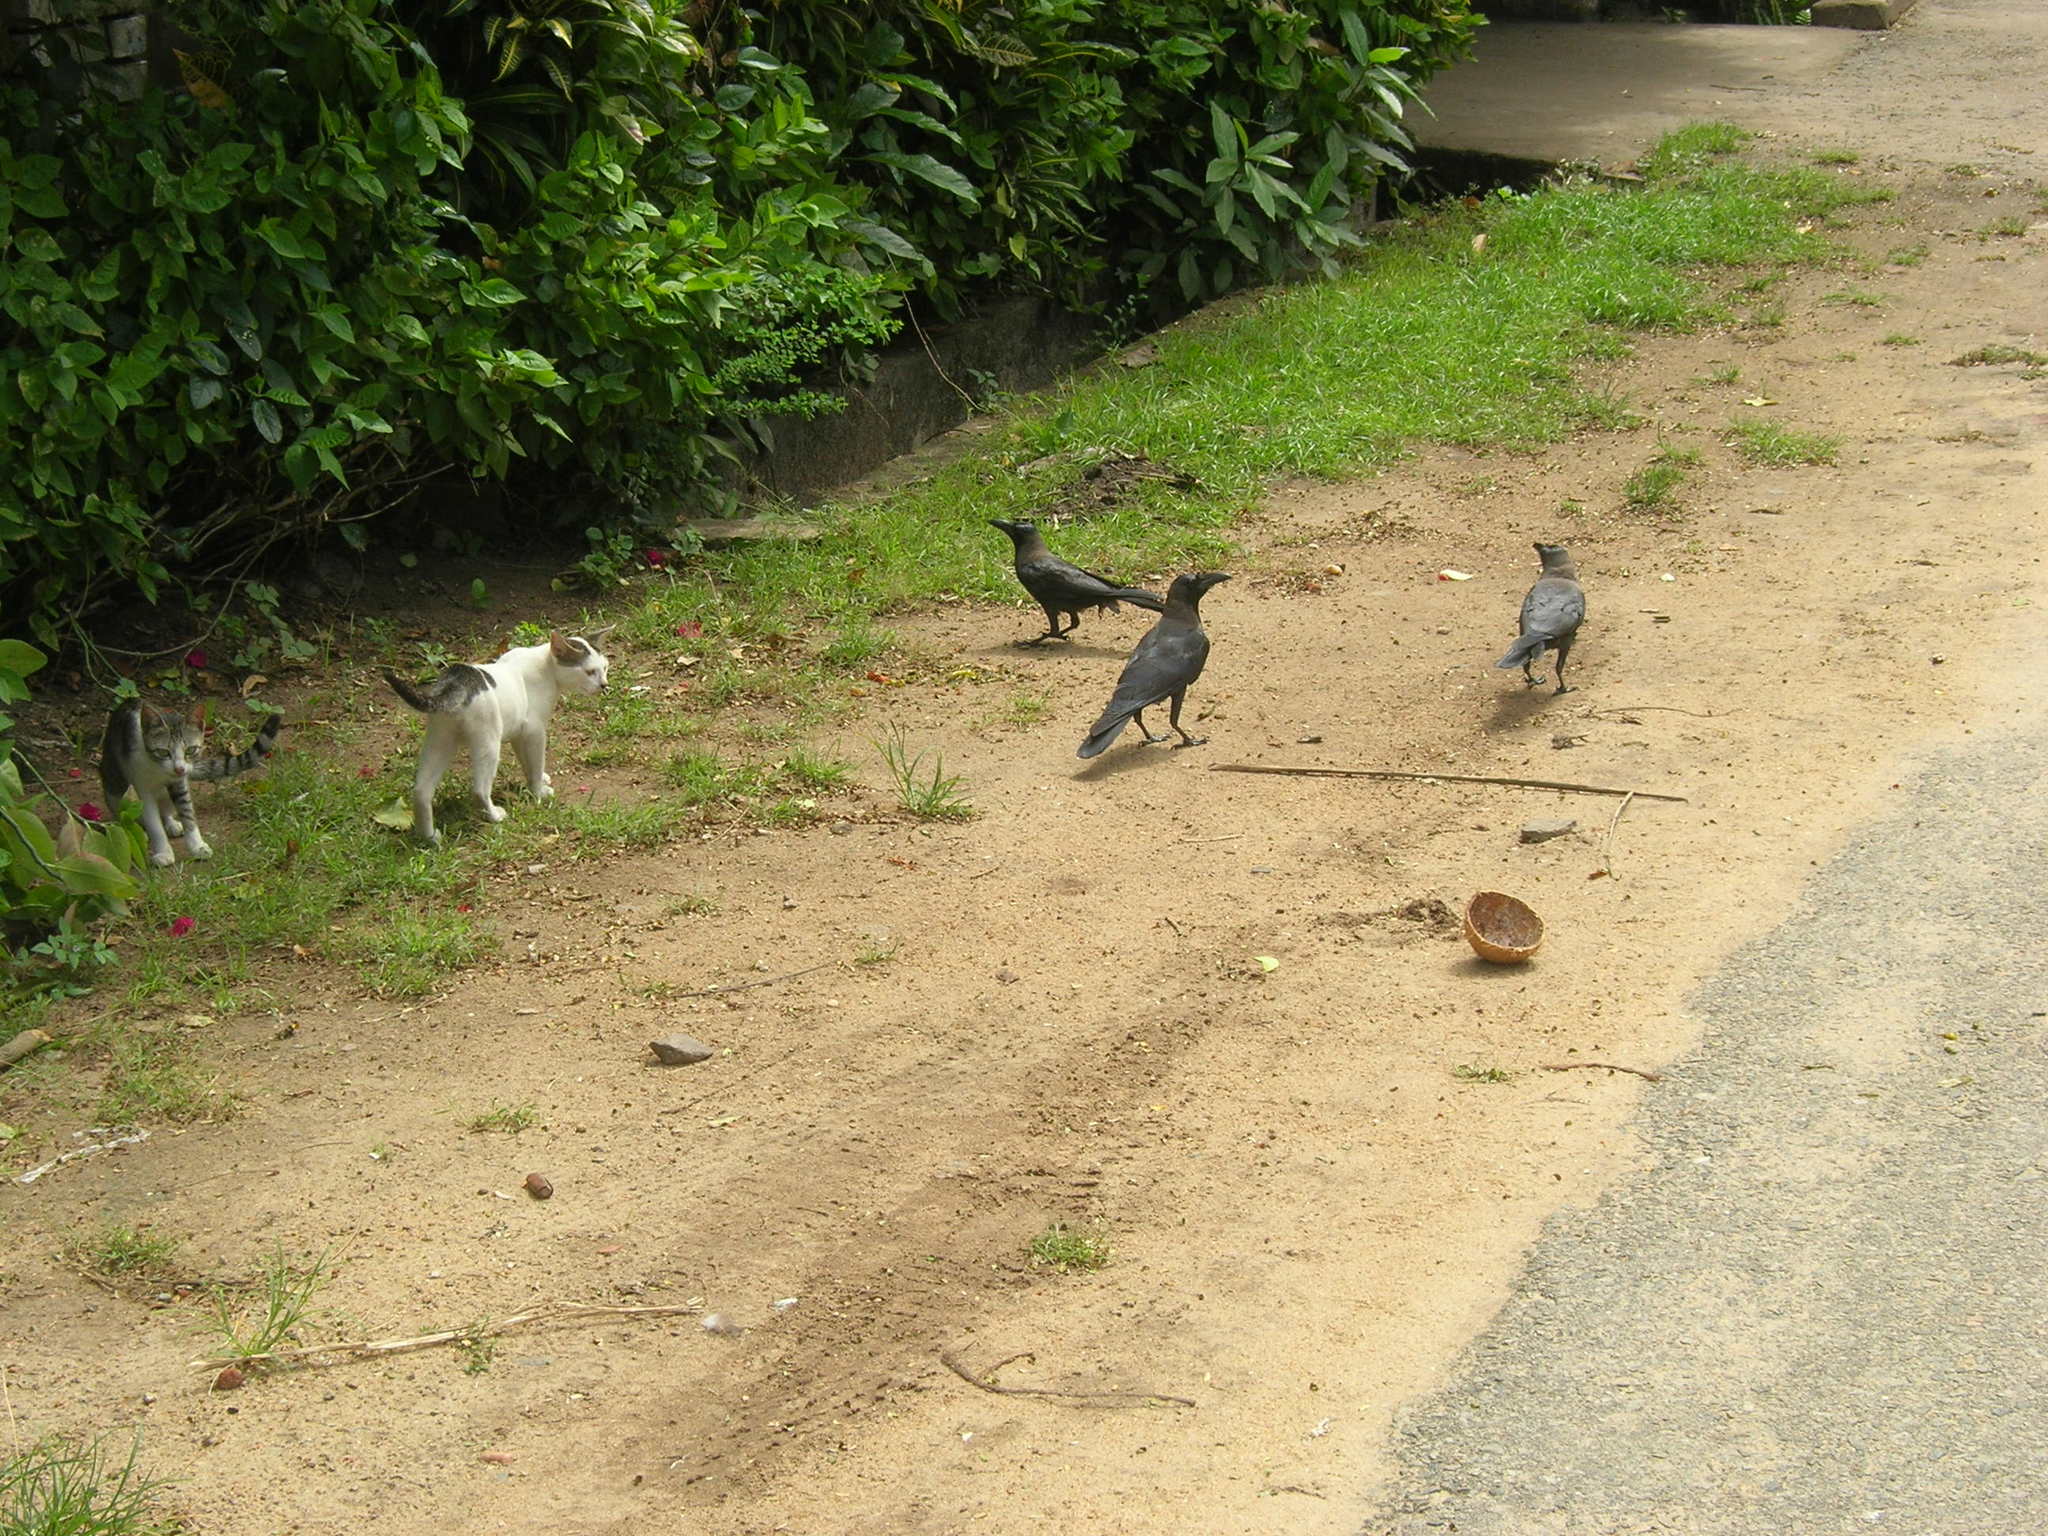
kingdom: Animalia
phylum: Chordata
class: Aves
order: Passeriformes
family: Corvidae
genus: Corvus
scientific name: Corvus splendens
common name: House crow
